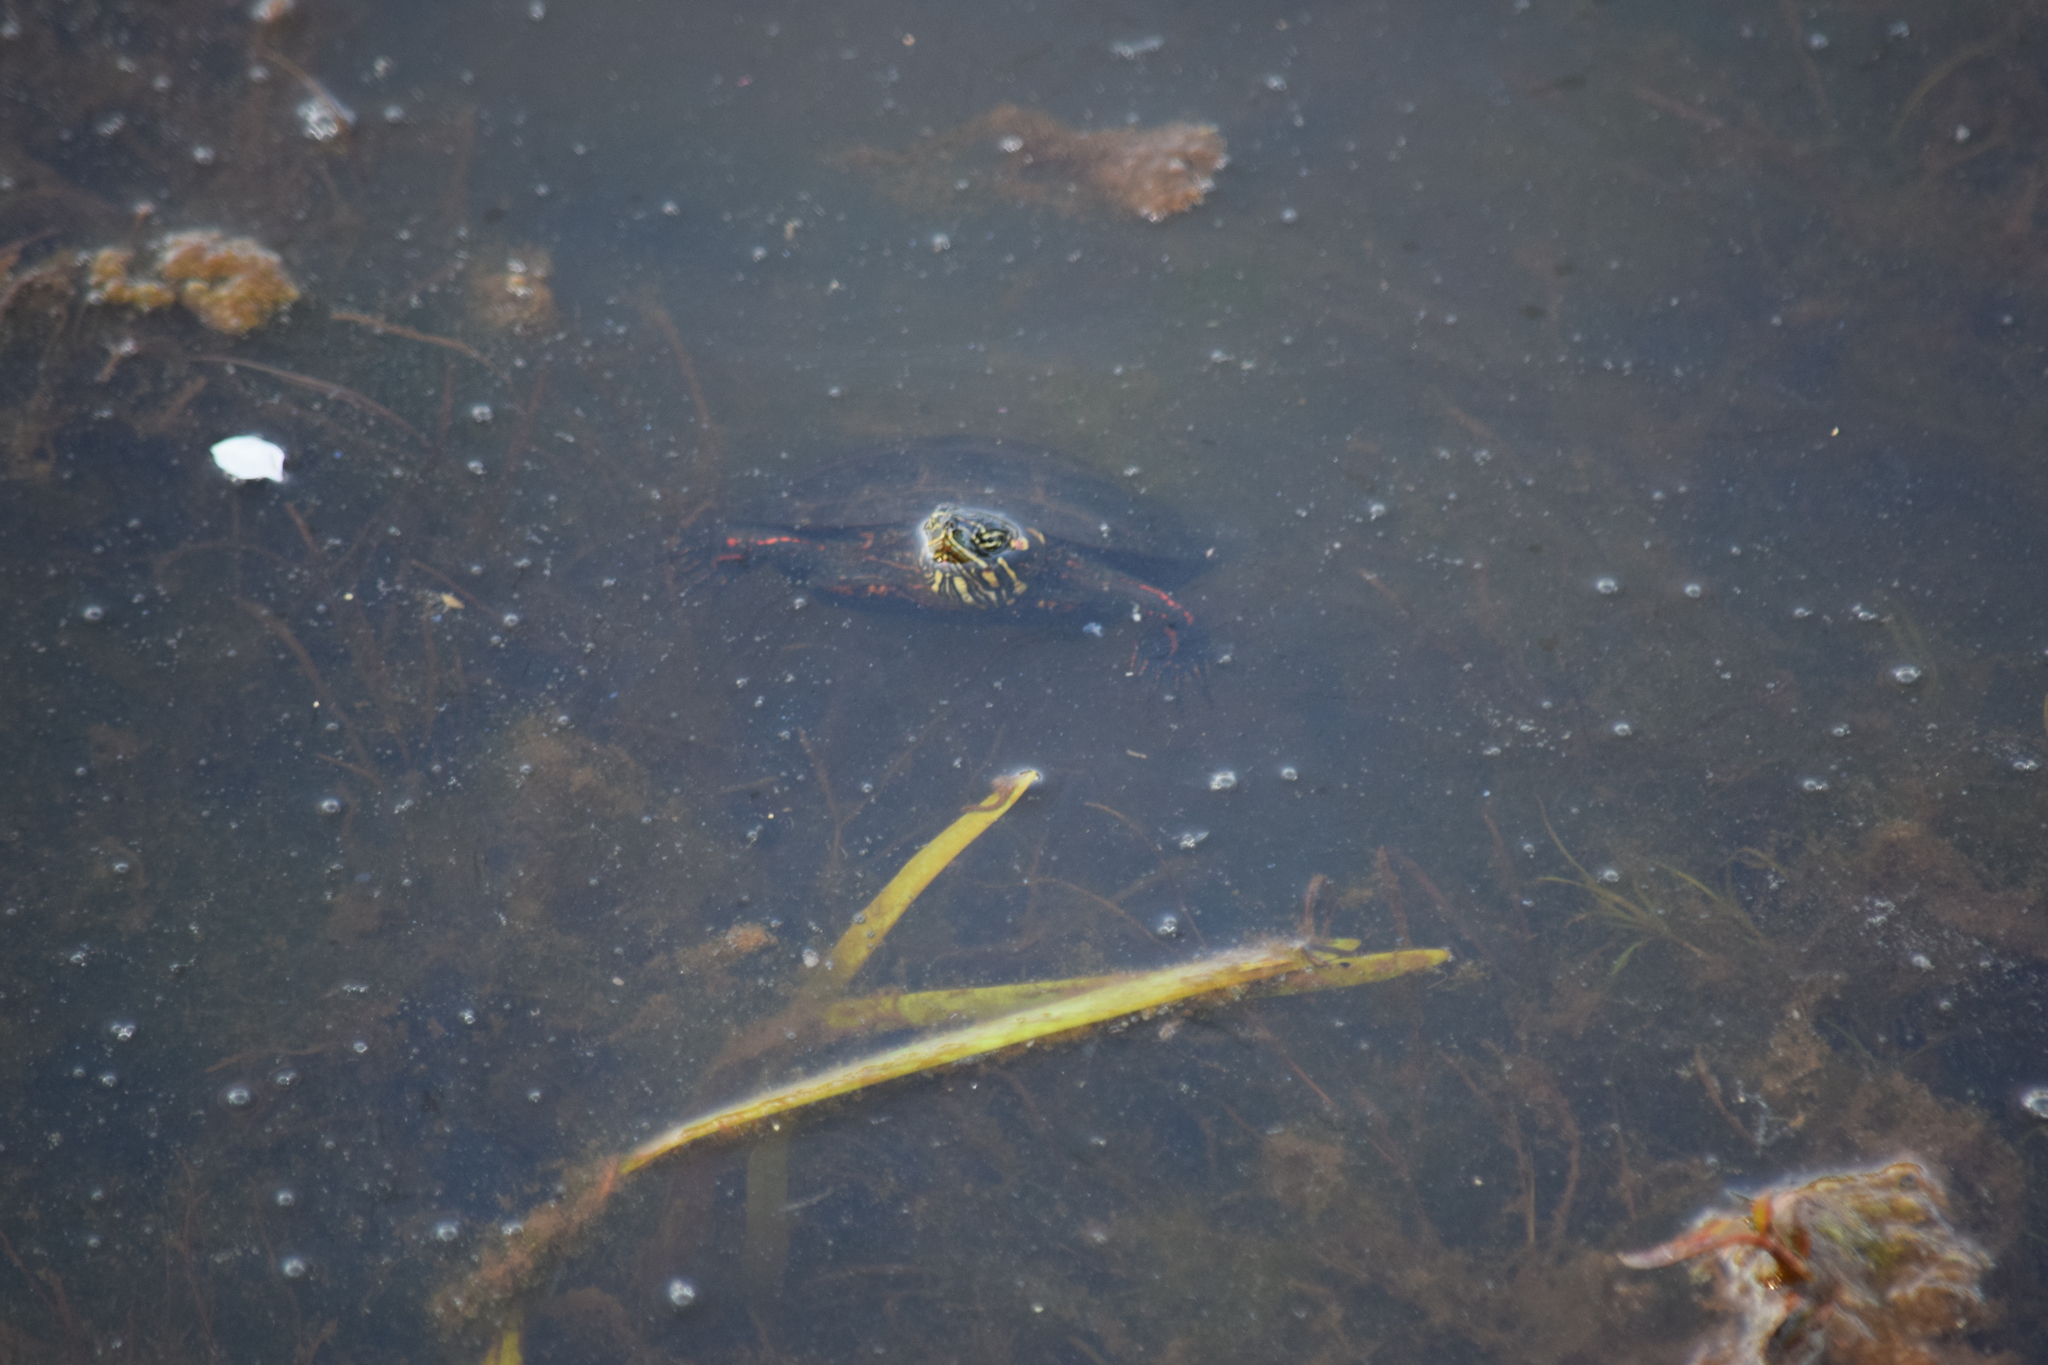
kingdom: Animalia
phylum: Chordata
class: Testudines
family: Emydidae
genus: Chrysemys
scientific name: Chrysemys picta
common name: Painted turtle
